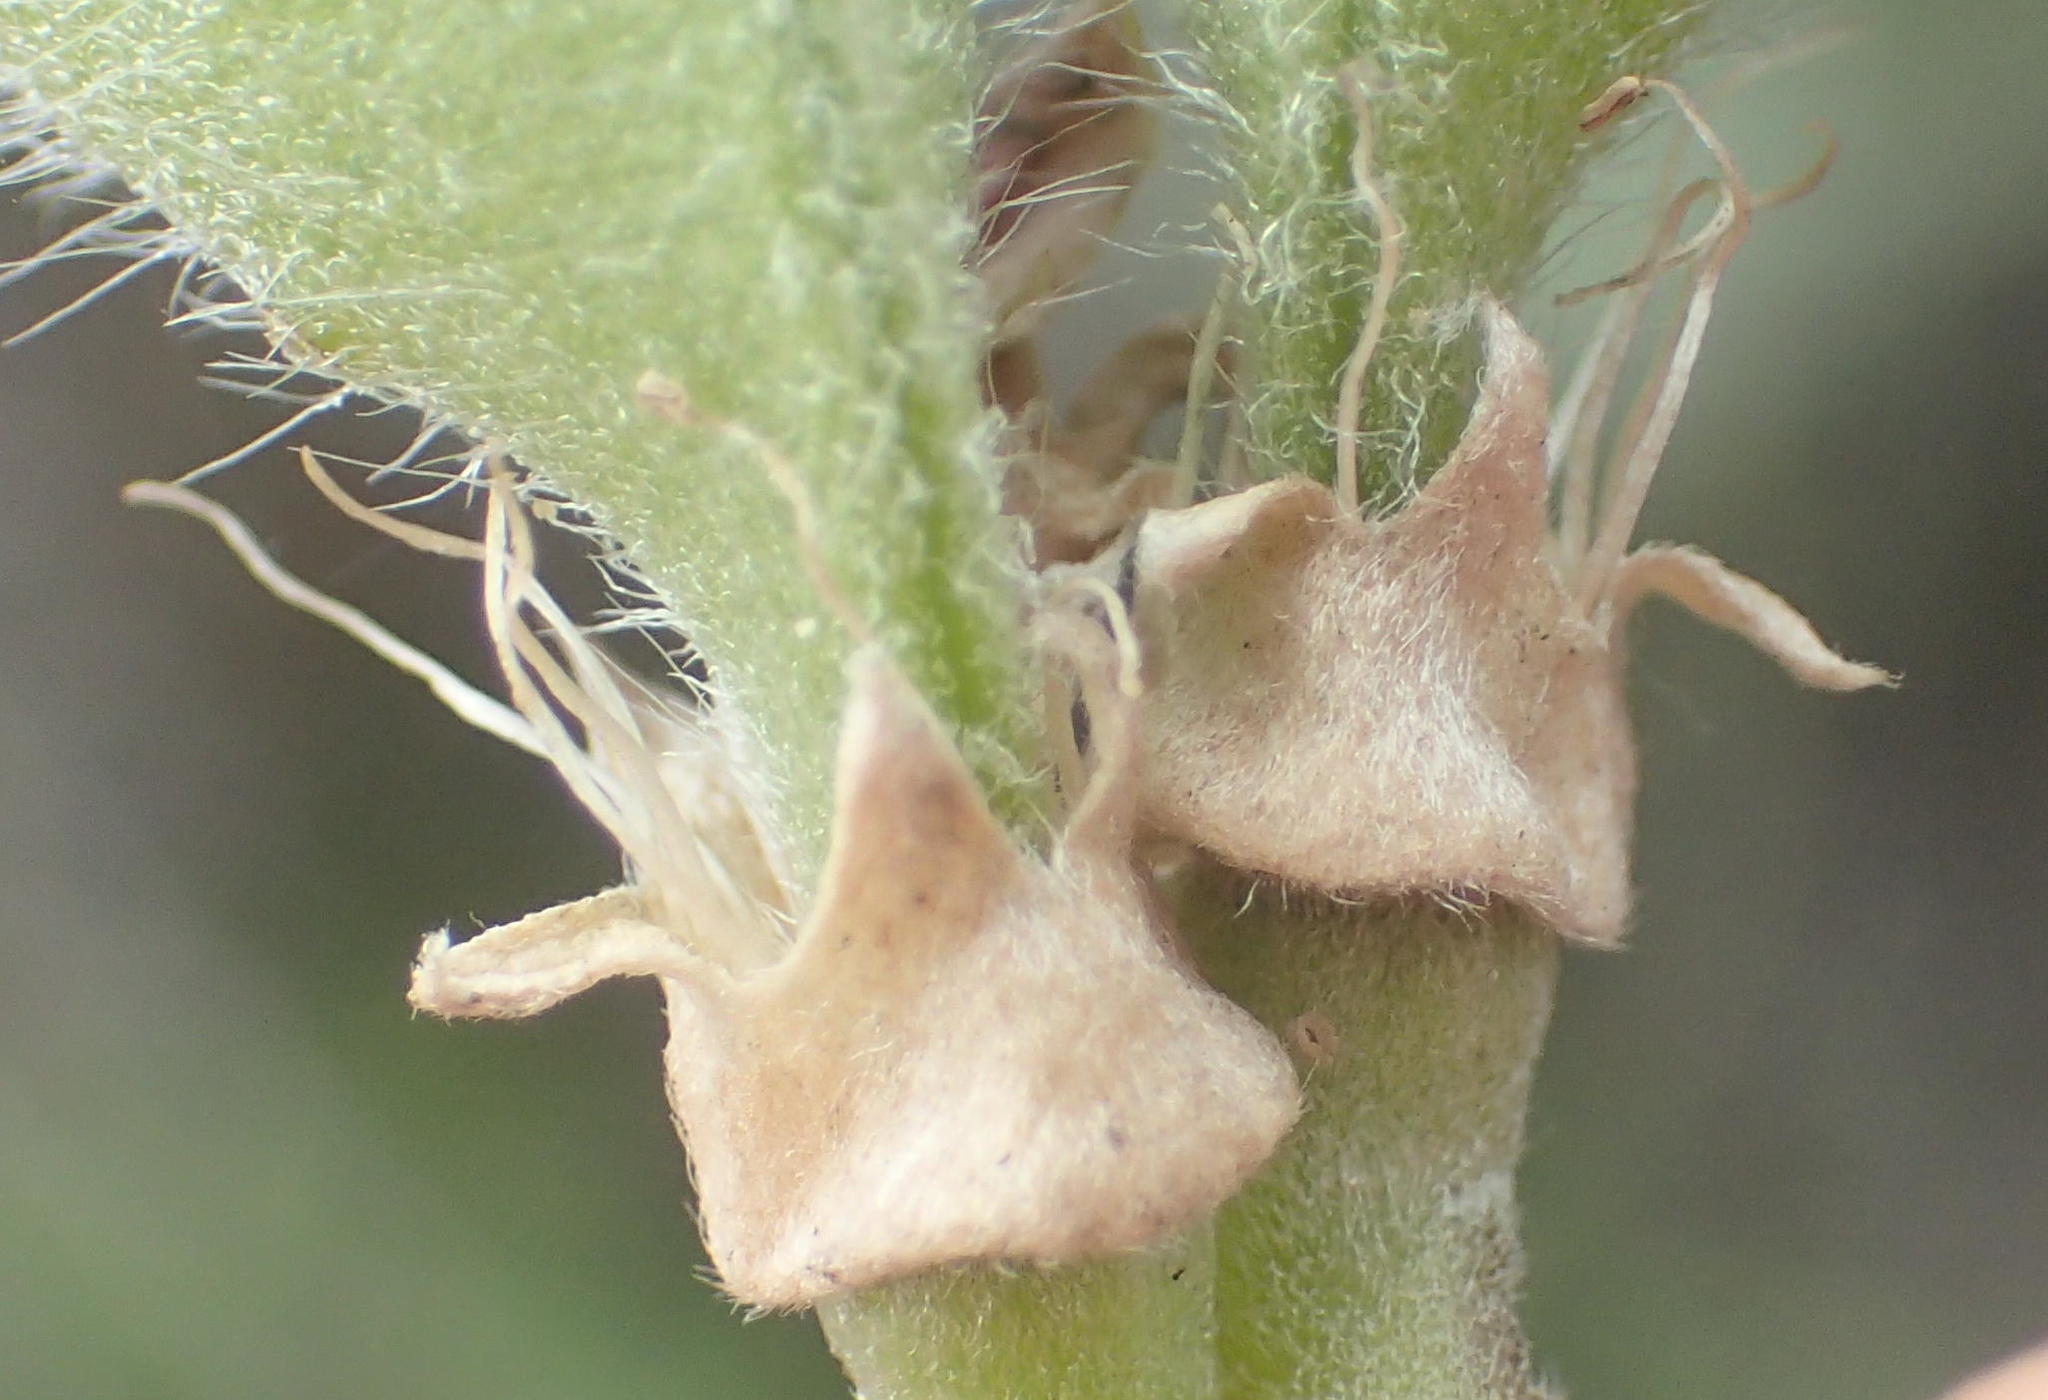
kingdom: Plantae
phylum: Tracheophyta
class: Magnoliopsida
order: Fabales
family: Fabaceae
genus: Podalyria
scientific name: Podalyria myrtillifolia
